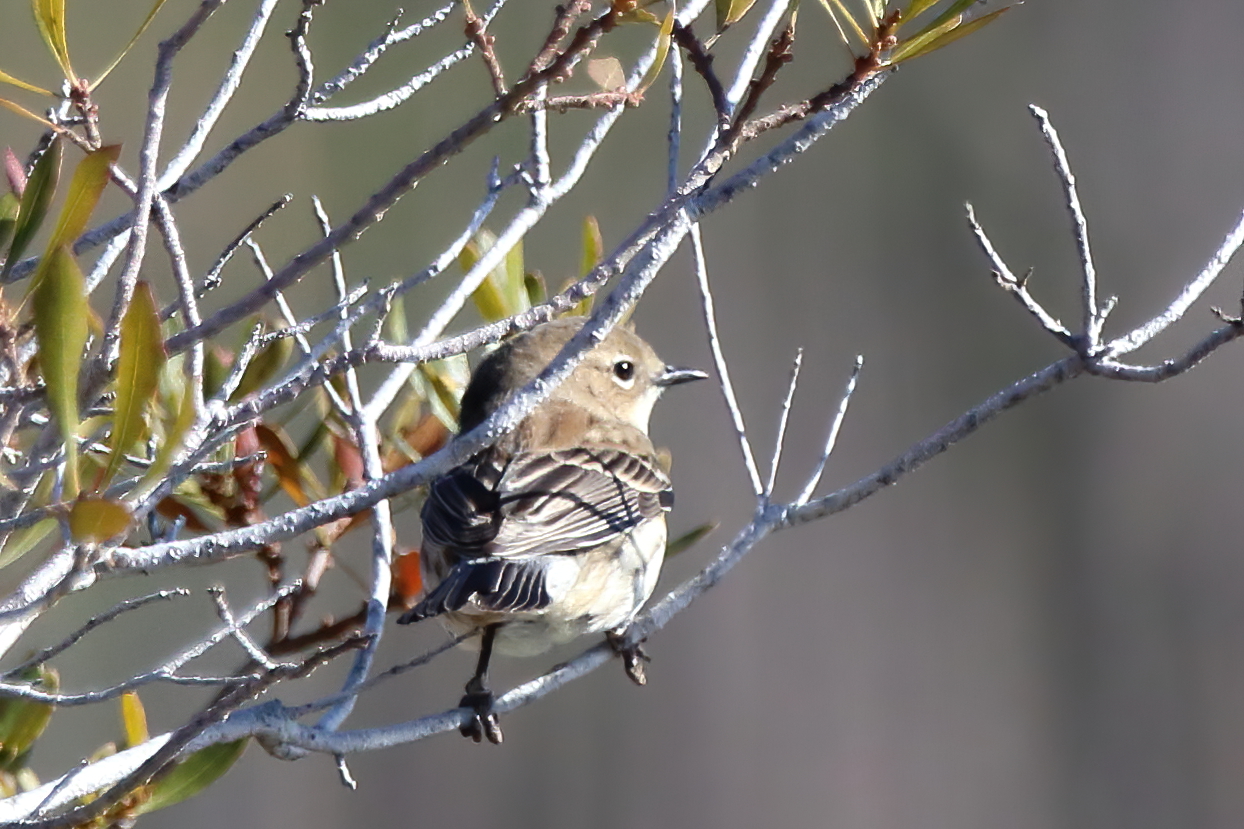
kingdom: Animalia
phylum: Chordata
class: Aves
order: Passeriformes
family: Parulidae
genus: Setophaga
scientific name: Setophaga coronata
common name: Myrtle warbler
